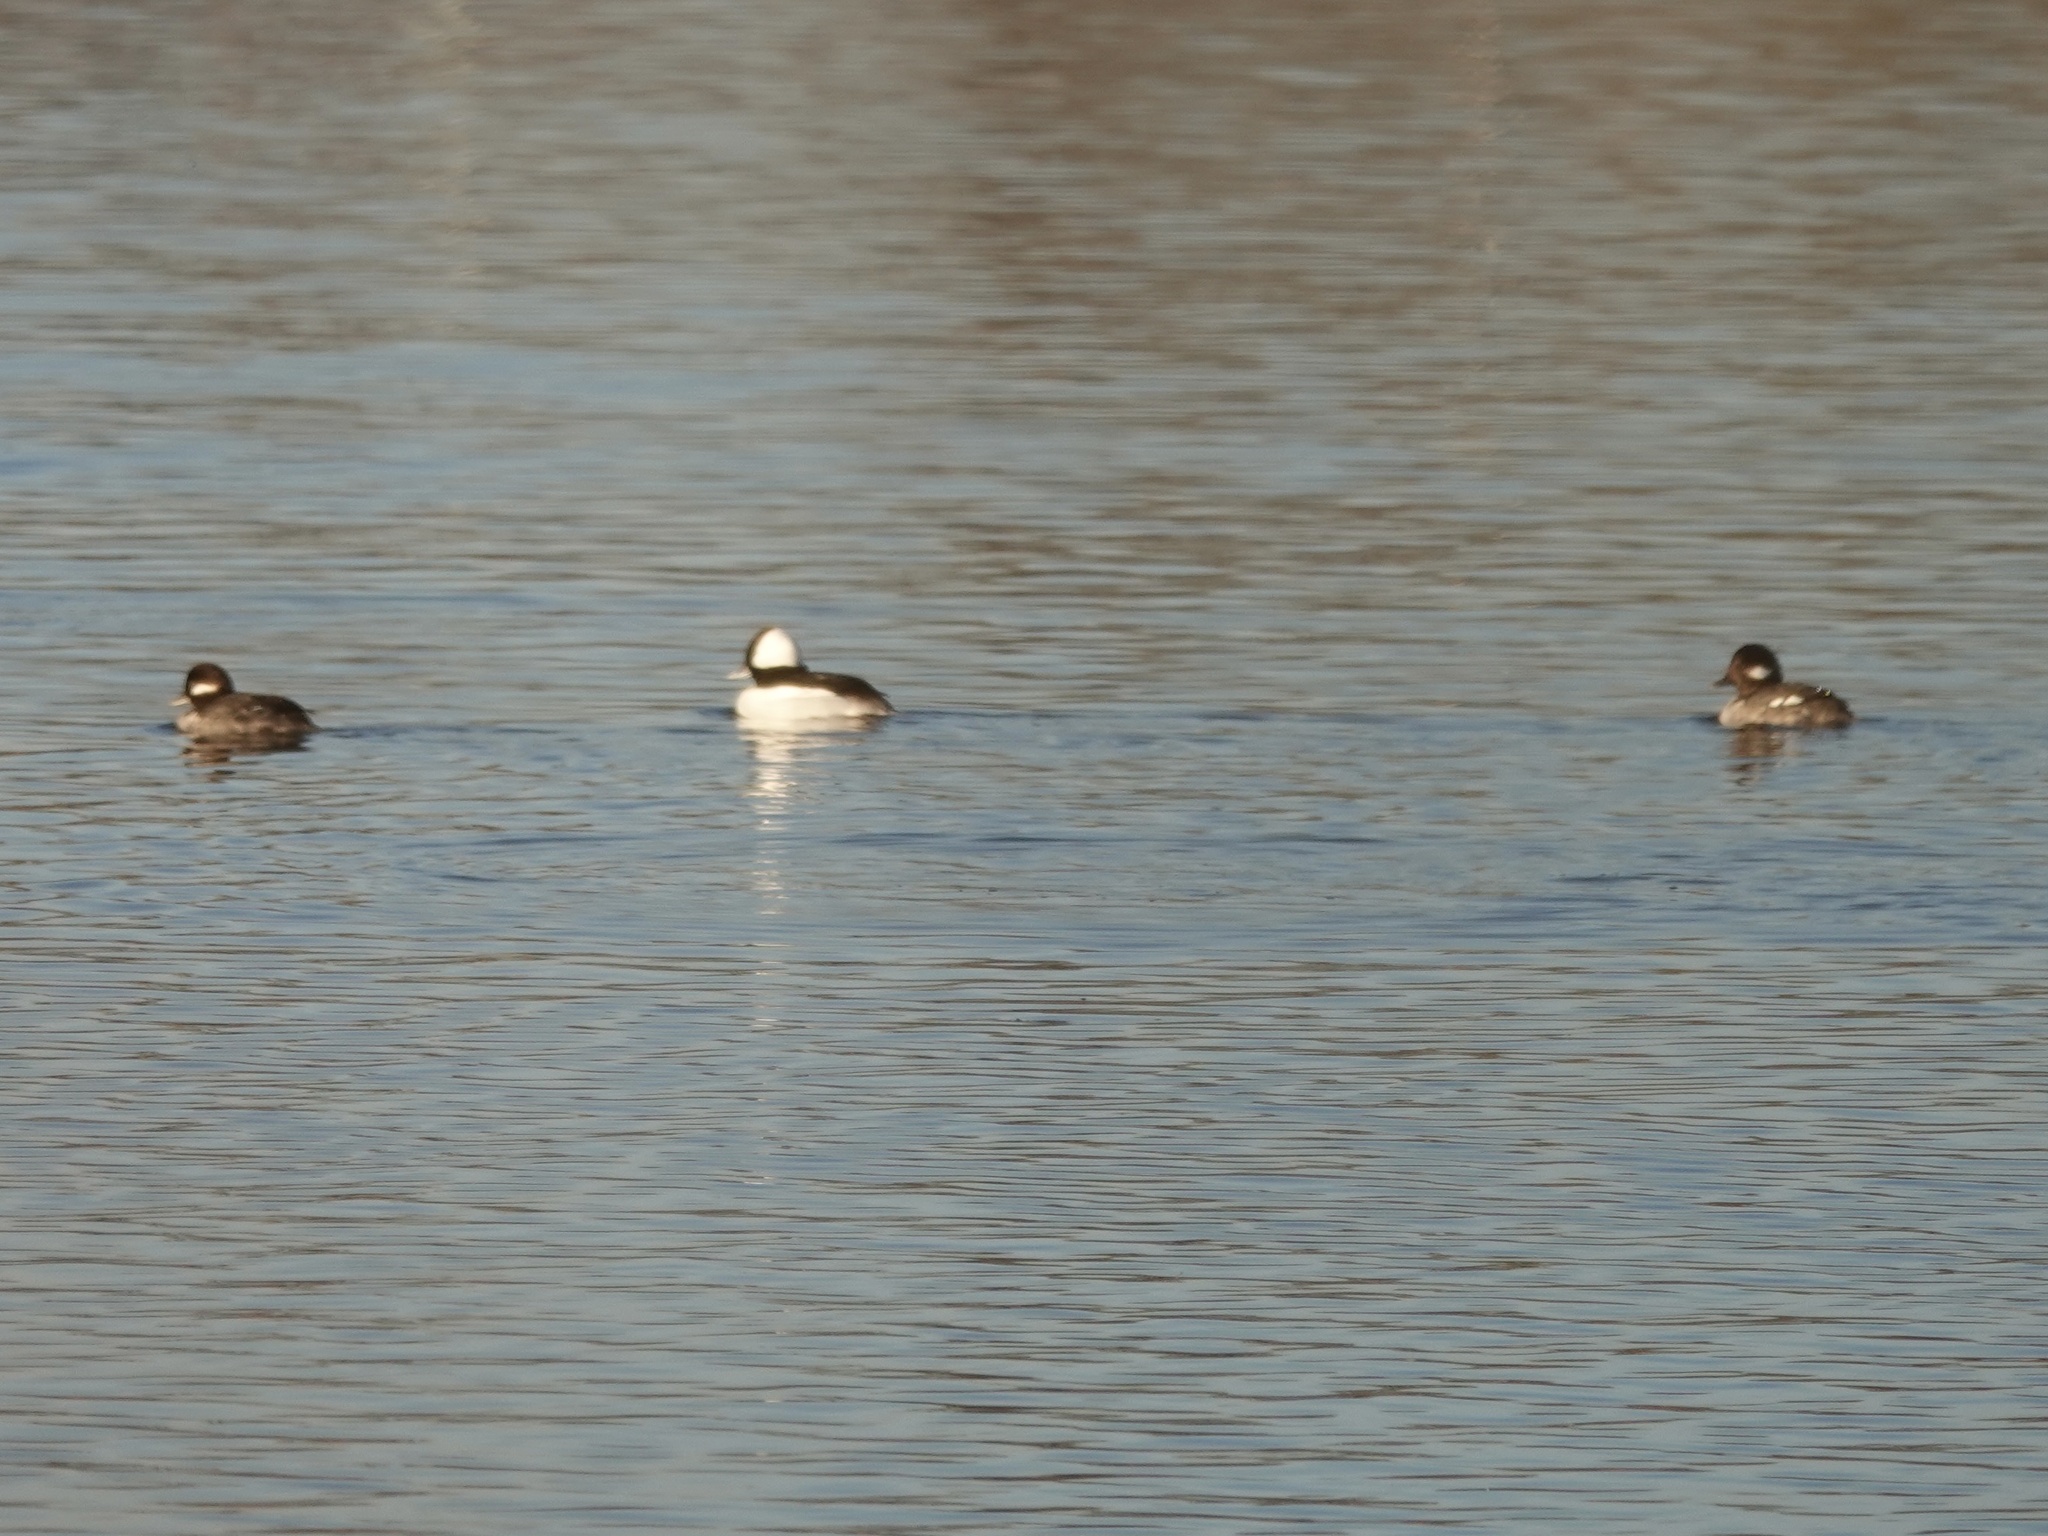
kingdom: Animalia
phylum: Chordata
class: Aves
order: Anseriformes
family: Anatidae
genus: Bucephala
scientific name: Bucephala albeola
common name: Bufflehead
